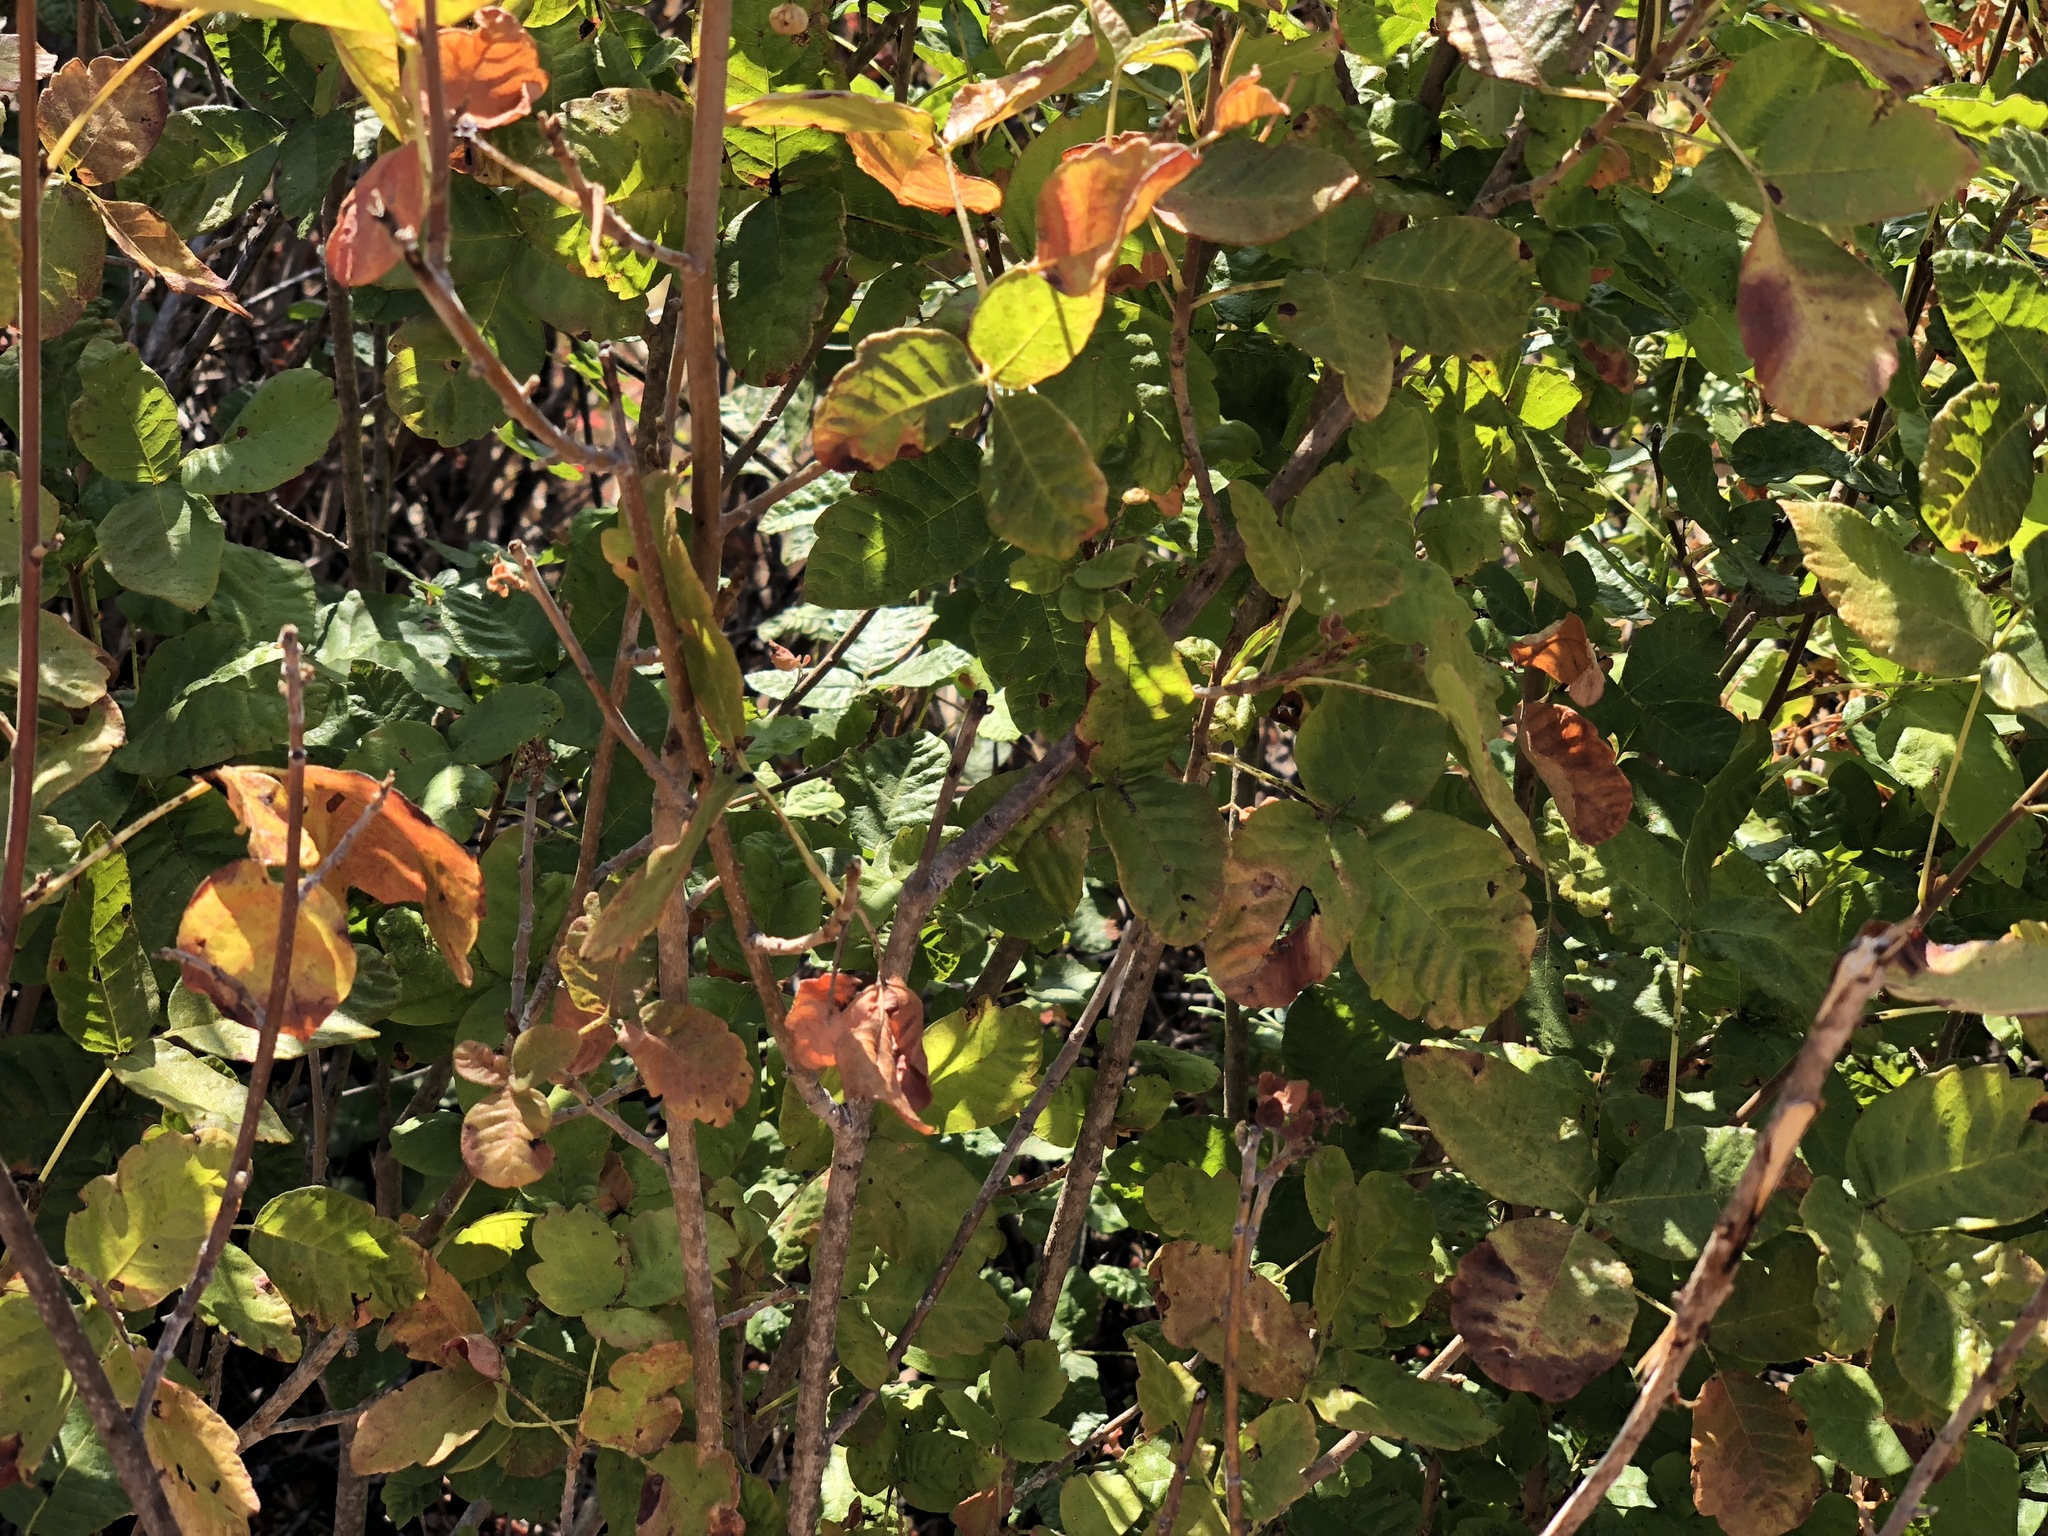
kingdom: Plantae
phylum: Tracheophyta
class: Magnoliopsida
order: Sapindales
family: Anacardiaceae
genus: Toxicodendron
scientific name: Toxicodendron diversilobum
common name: Pacific poison-oak
